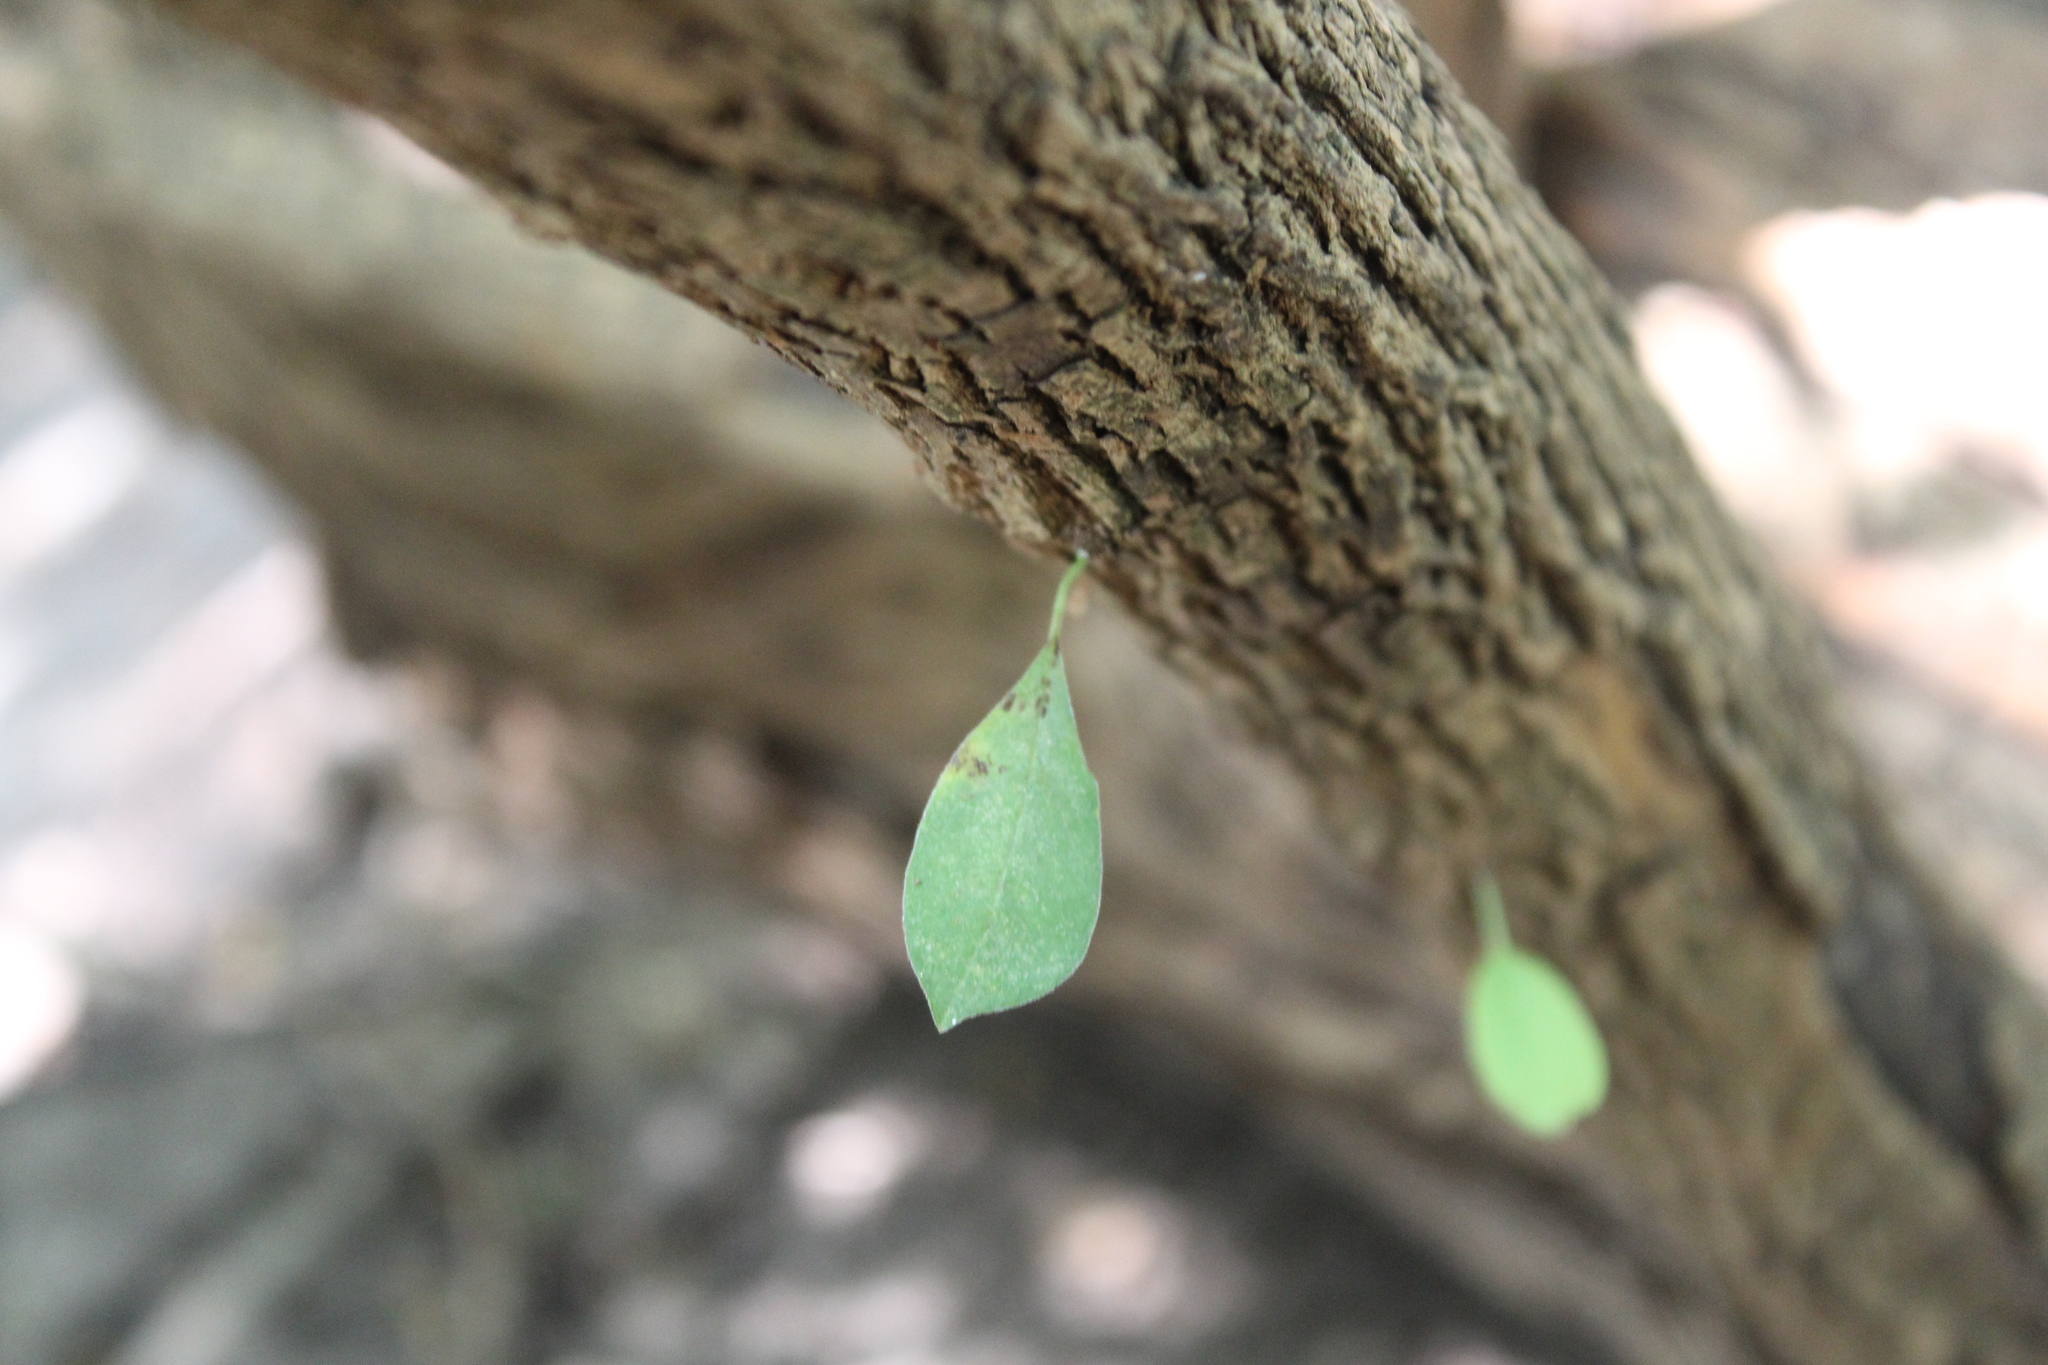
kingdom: Plantae
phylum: Tracheophyta
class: Magnoliopsida
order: Rosales
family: Moraceae
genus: Maclura
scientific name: Maclura pomifera
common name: Osage-orange
